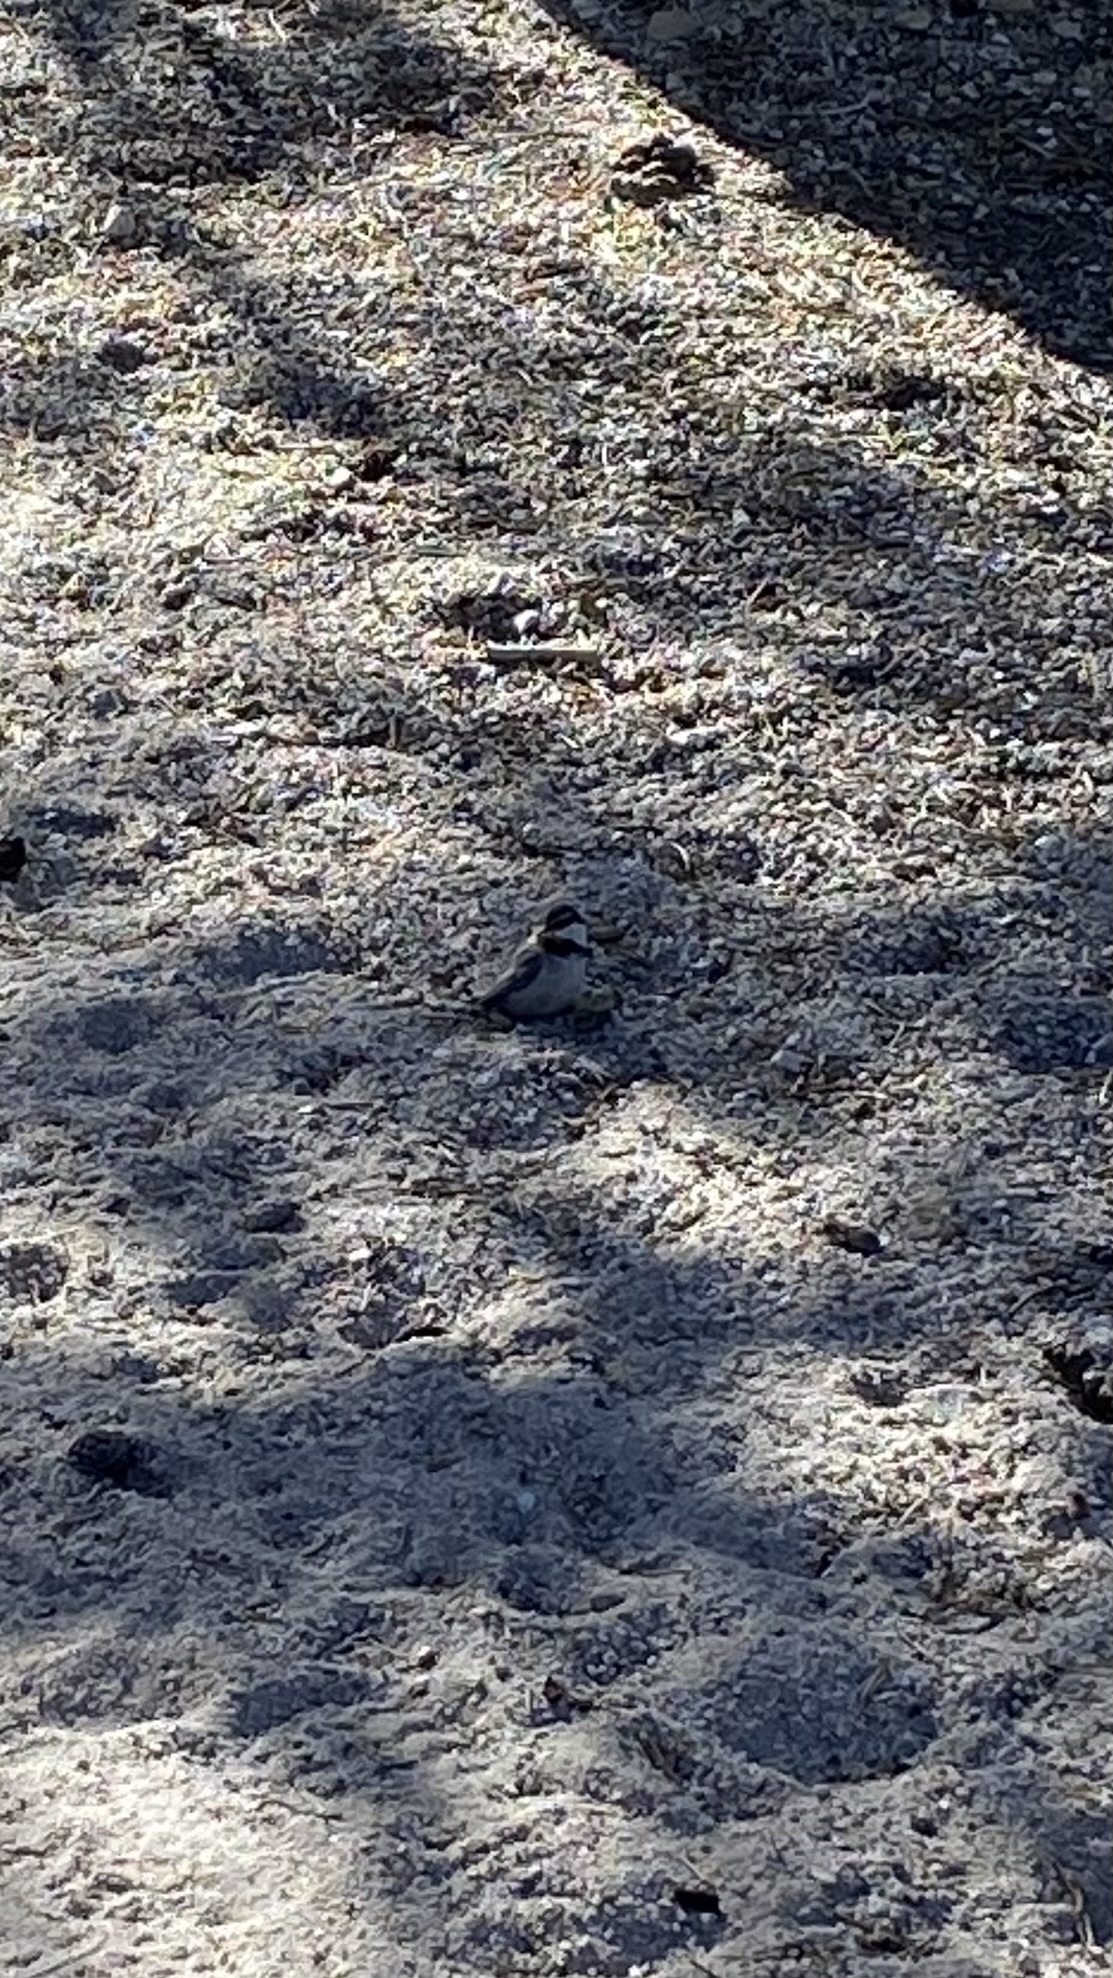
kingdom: Animalia
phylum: Chordata
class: Aves
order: Passeriformes
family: Paridae
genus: Poecile
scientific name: Poecile gambeli
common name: Mountain chickadee
